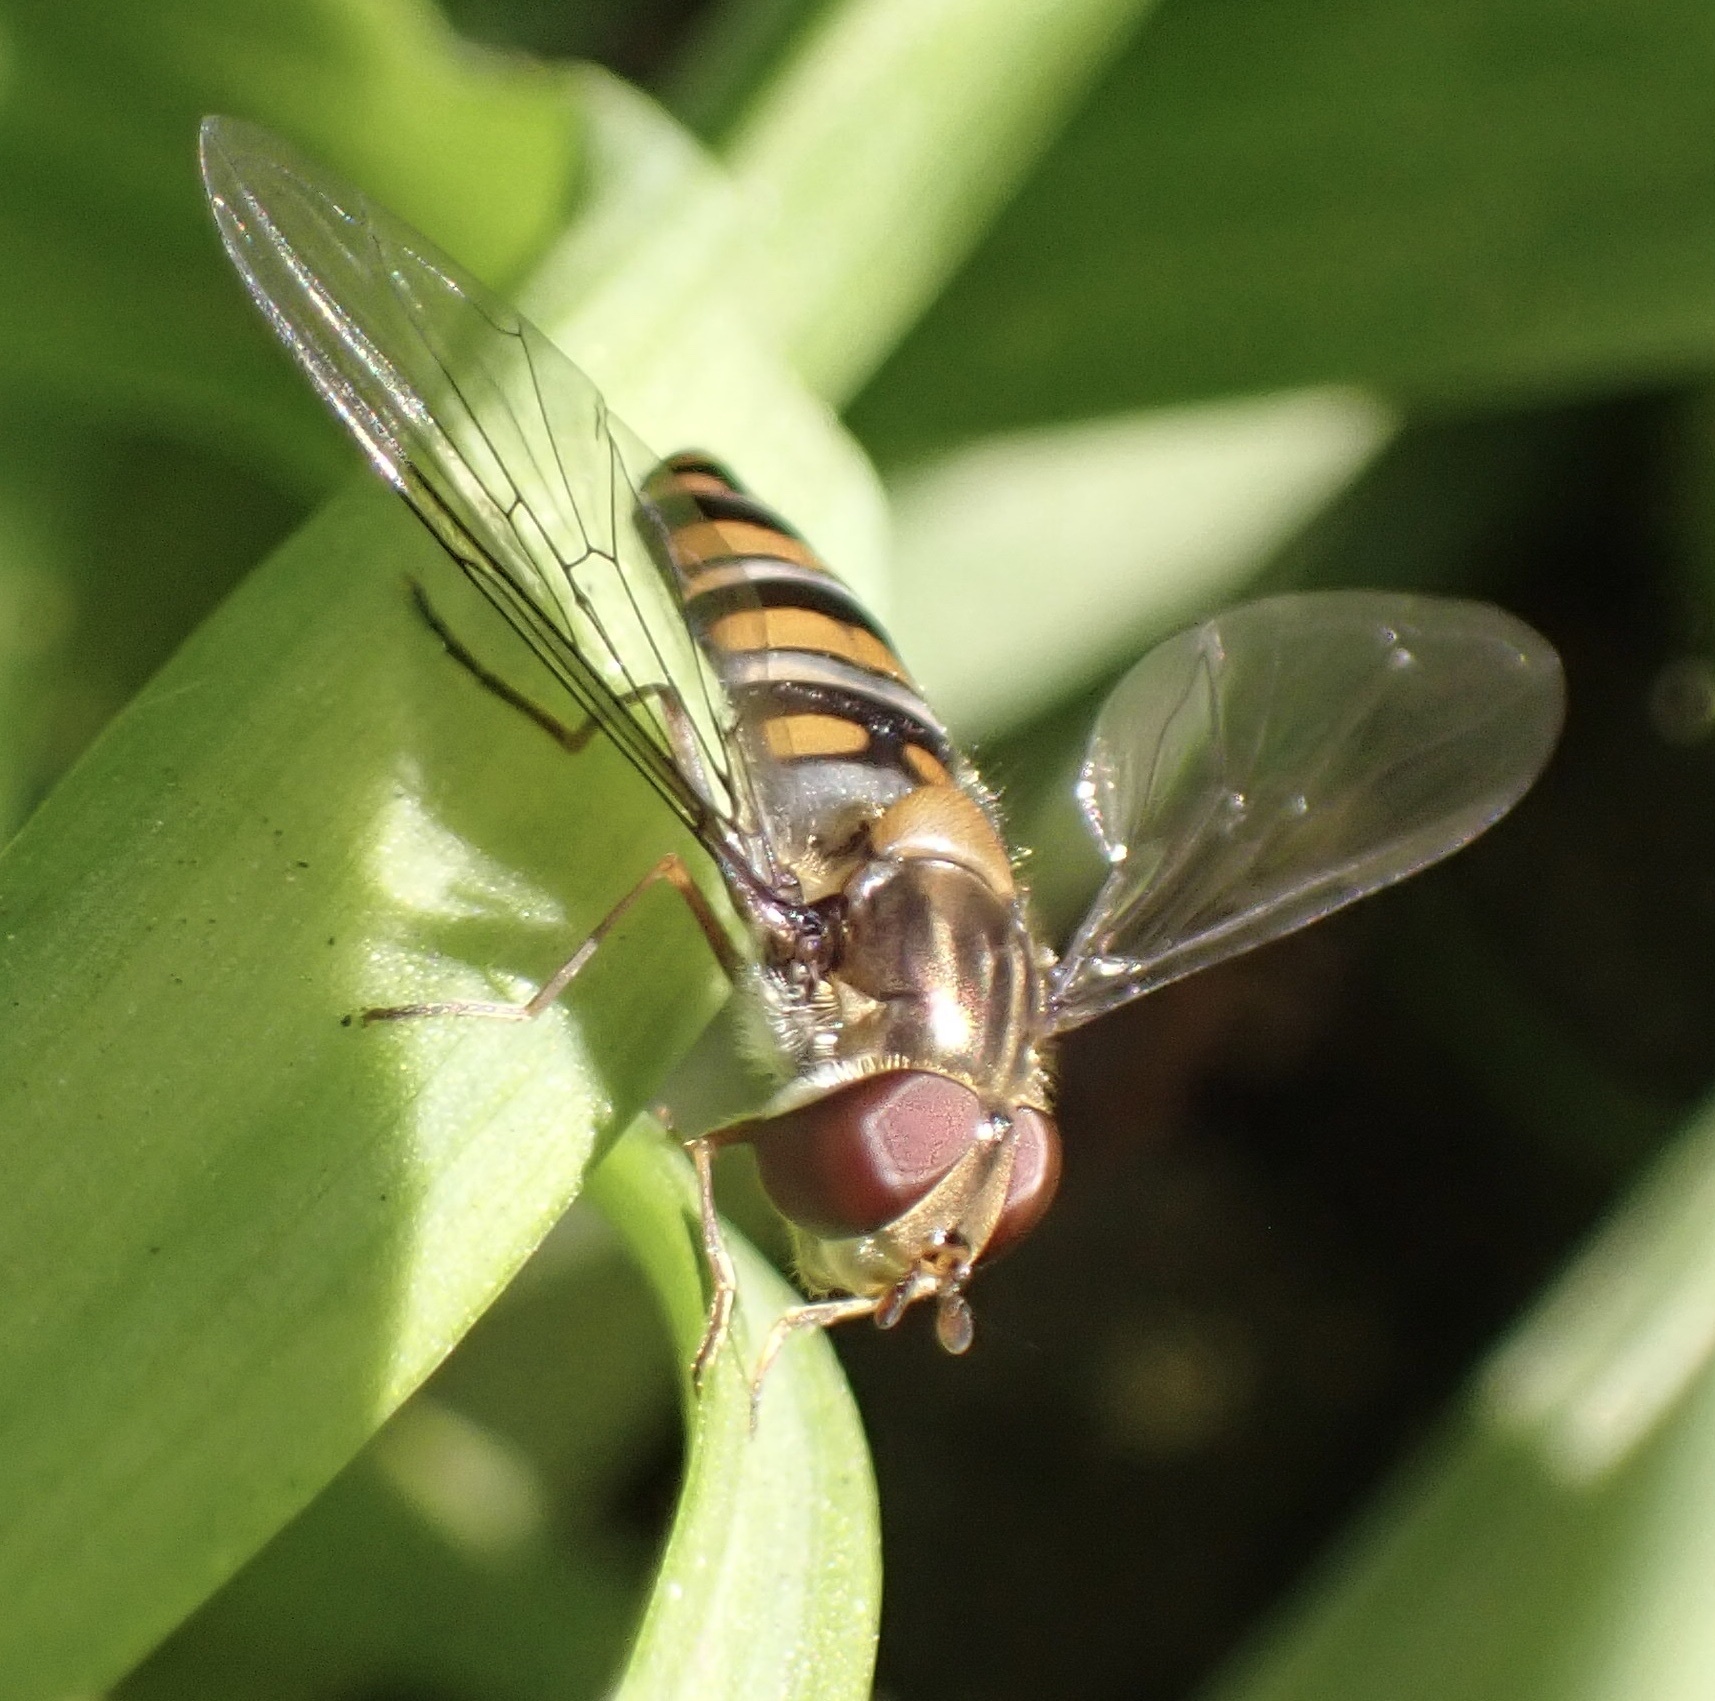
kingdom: Animalia
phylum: Arthropoda
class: Insecta
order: Diptera
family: Syrphidae
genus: Episyrphus
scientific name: Episyrphus balteatus
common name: Marmalade hoverfly
